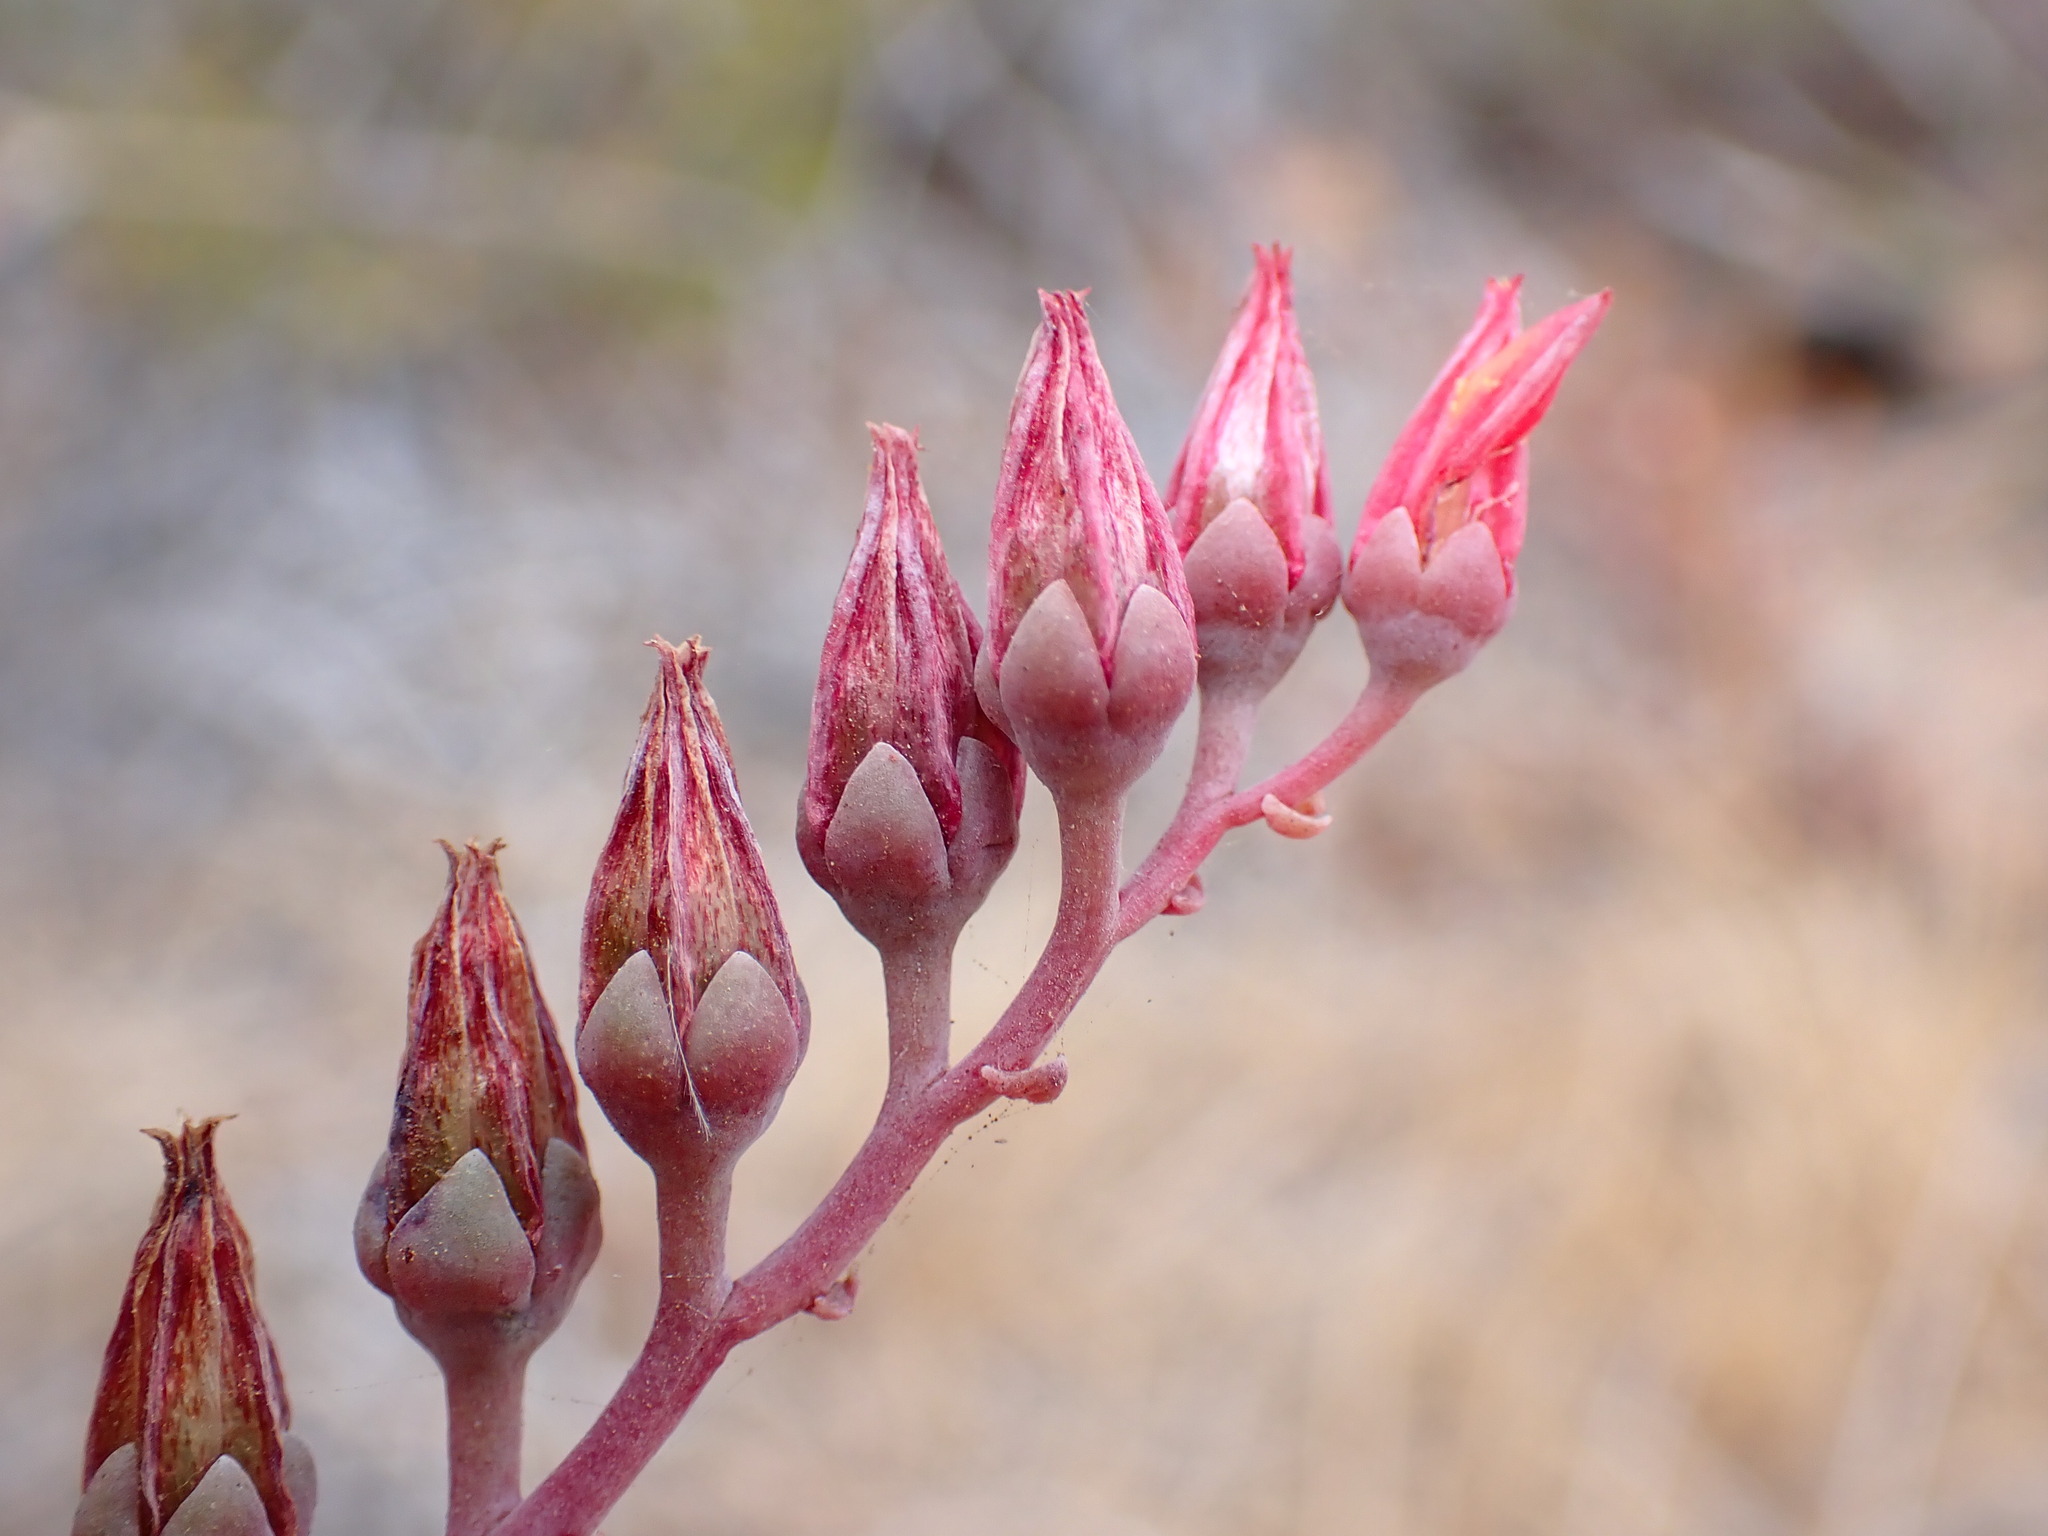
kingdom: Plantae
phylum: Tracheophyta
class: Magnoliopsida
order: Saxifragales
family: Crassulaceae
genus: Dudleya
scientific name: Dudleya lanceolata
